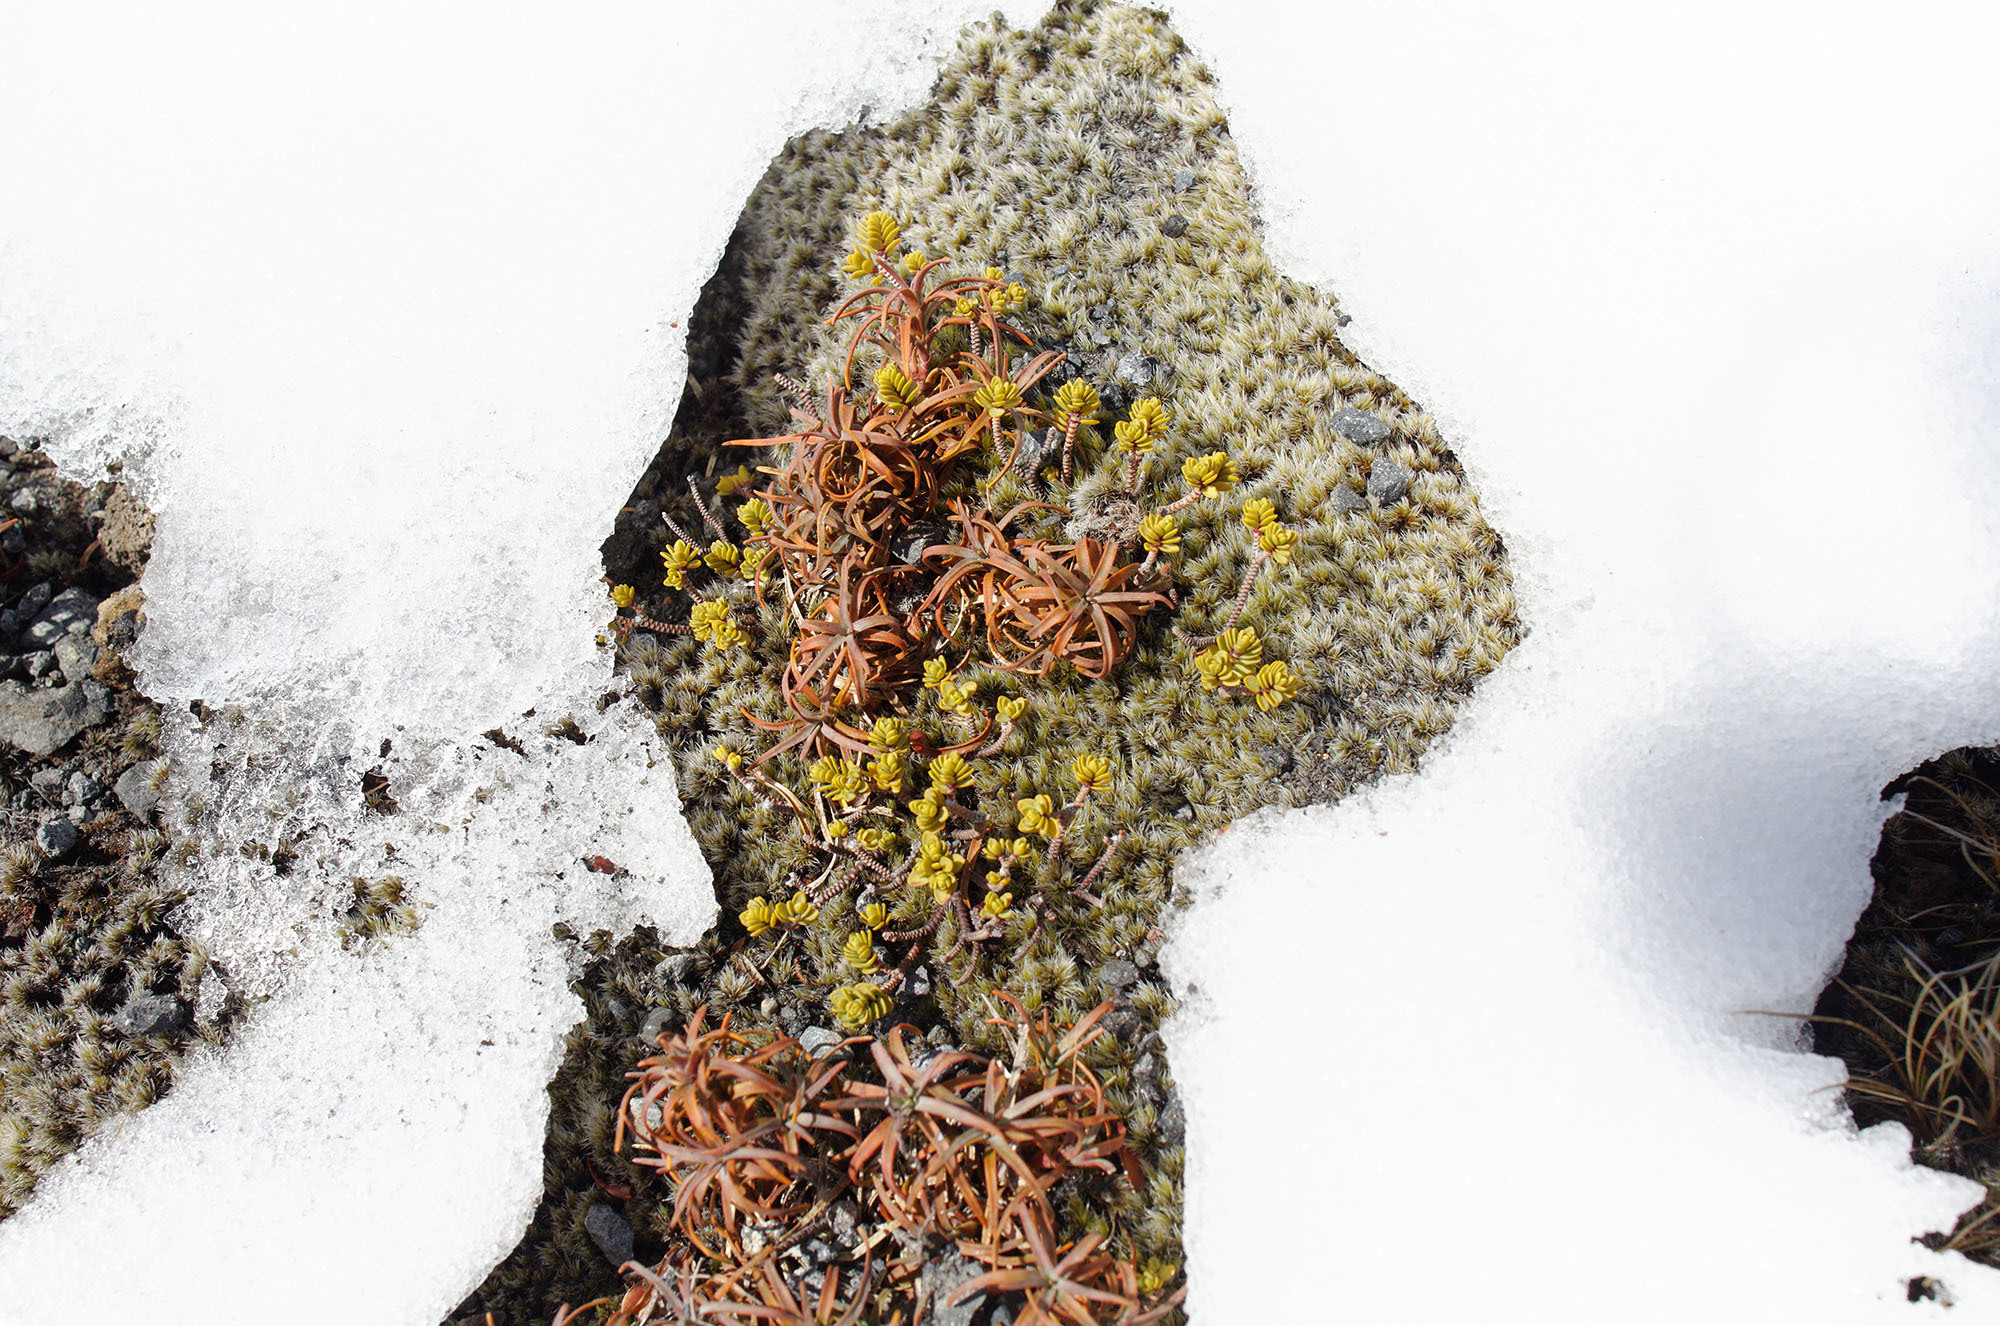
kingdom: Plantae
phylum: Tracheophyta
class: Magnoliopsida
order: Malvales
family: Thymelaeaceae
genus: Pimelea
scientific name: Pimelea microphylla
